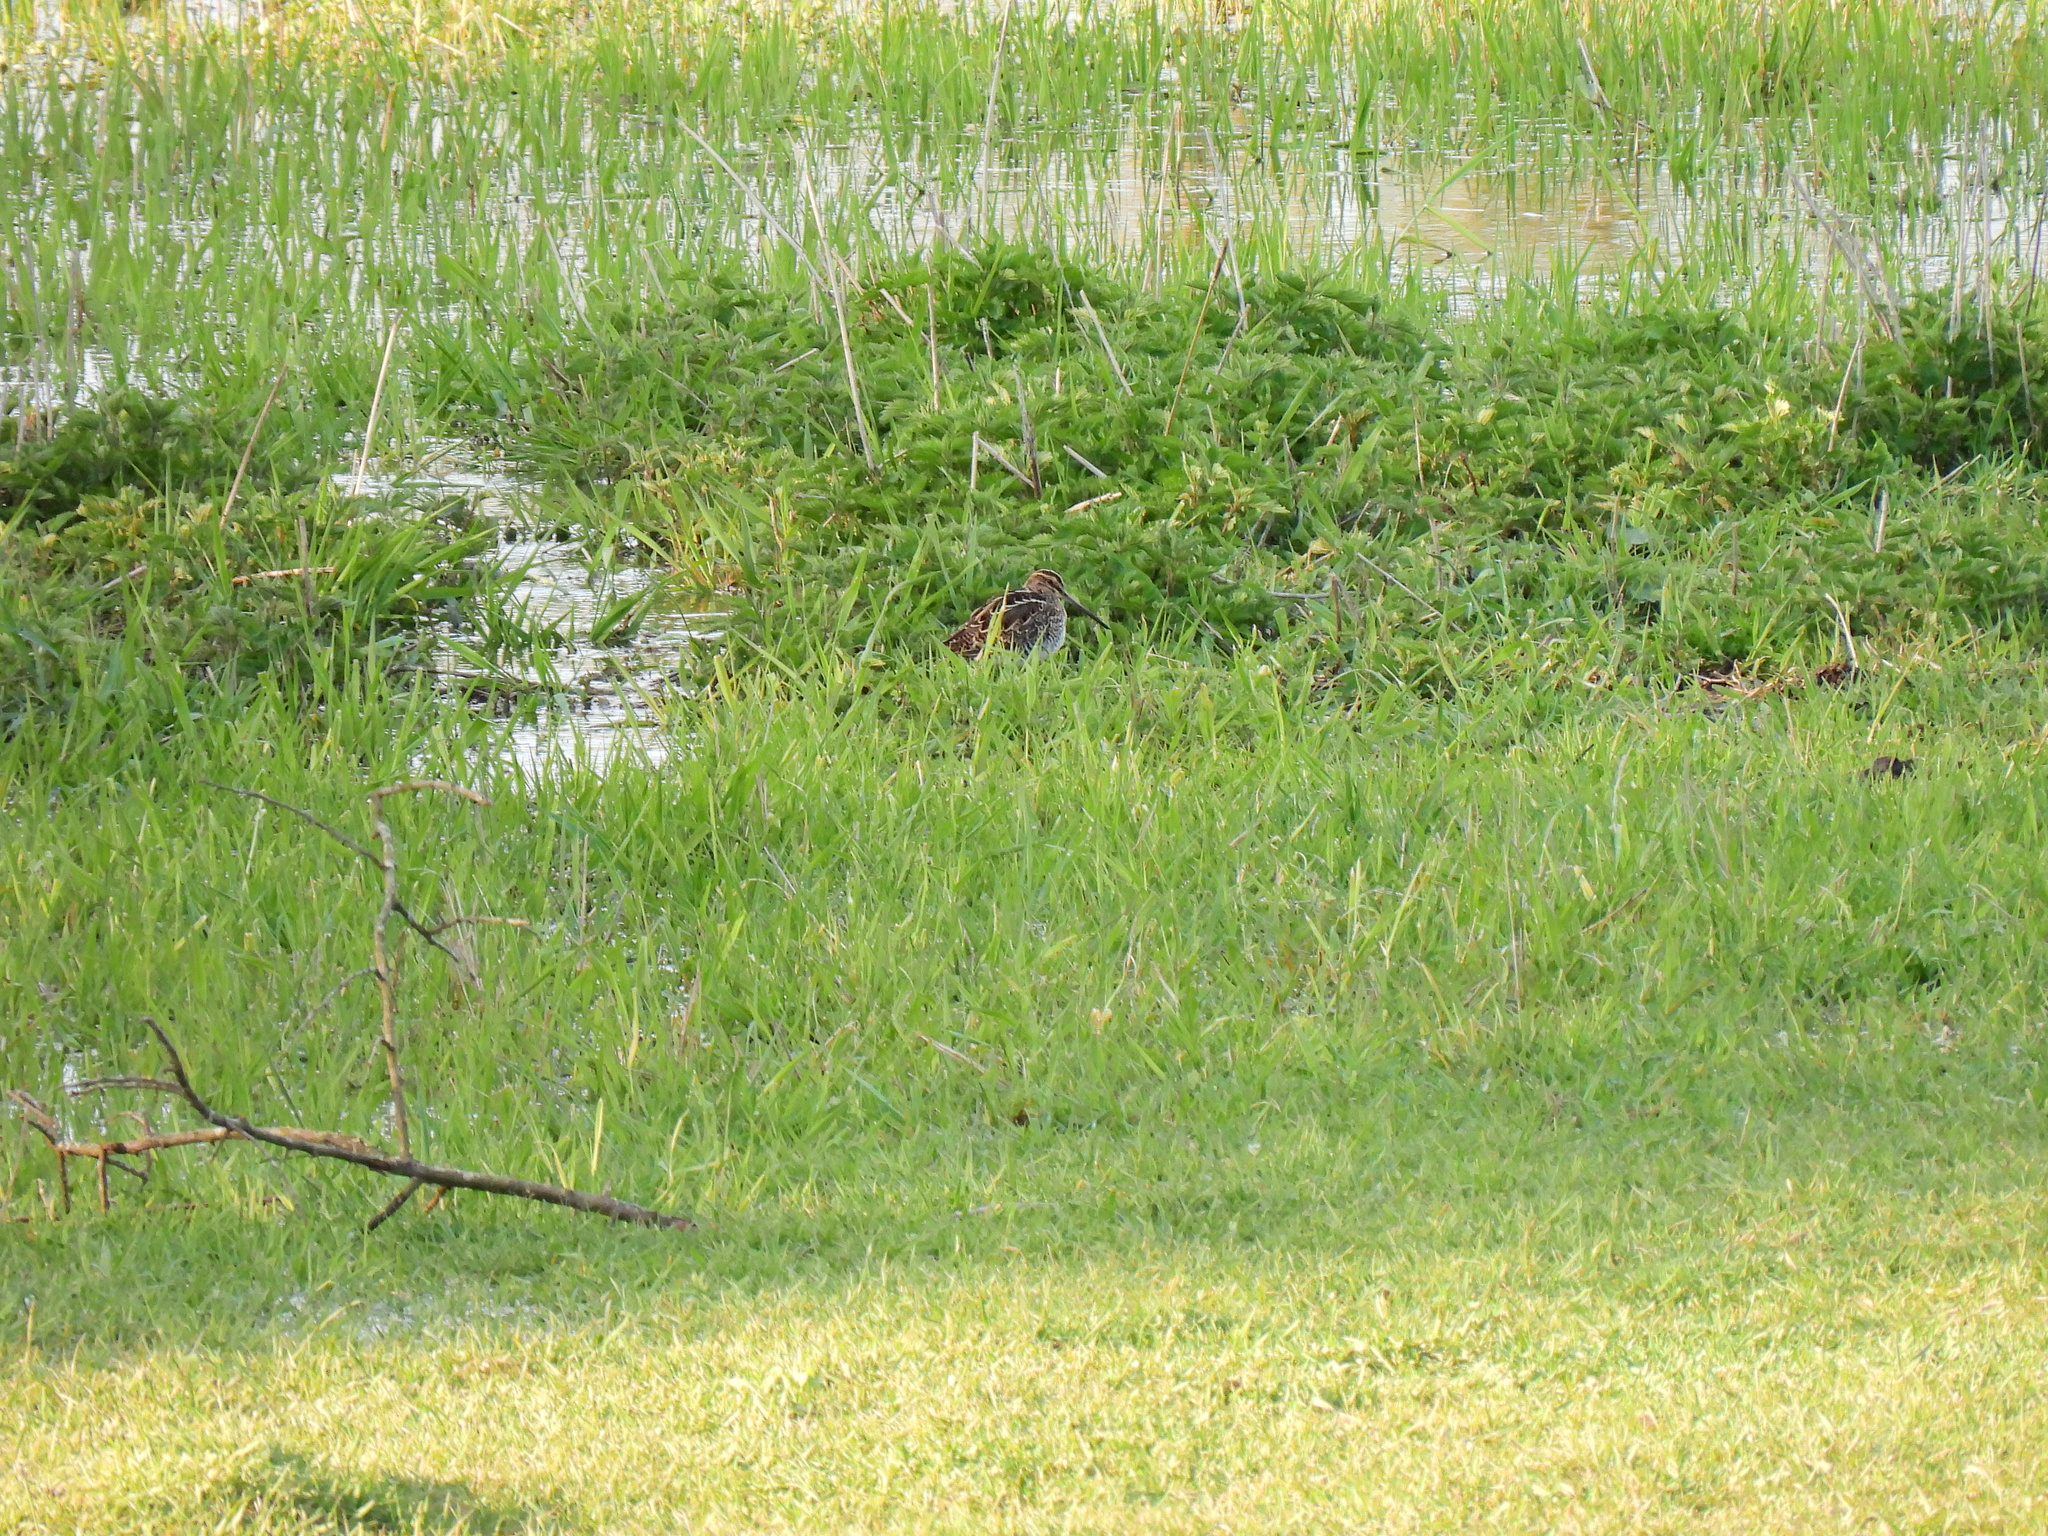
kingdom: Animalia
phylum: Chordata
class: Aves
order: Charadriiformes
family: Scolopacidae
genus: Gallinago
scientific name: Gallinago gallinago
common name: Common snipe
